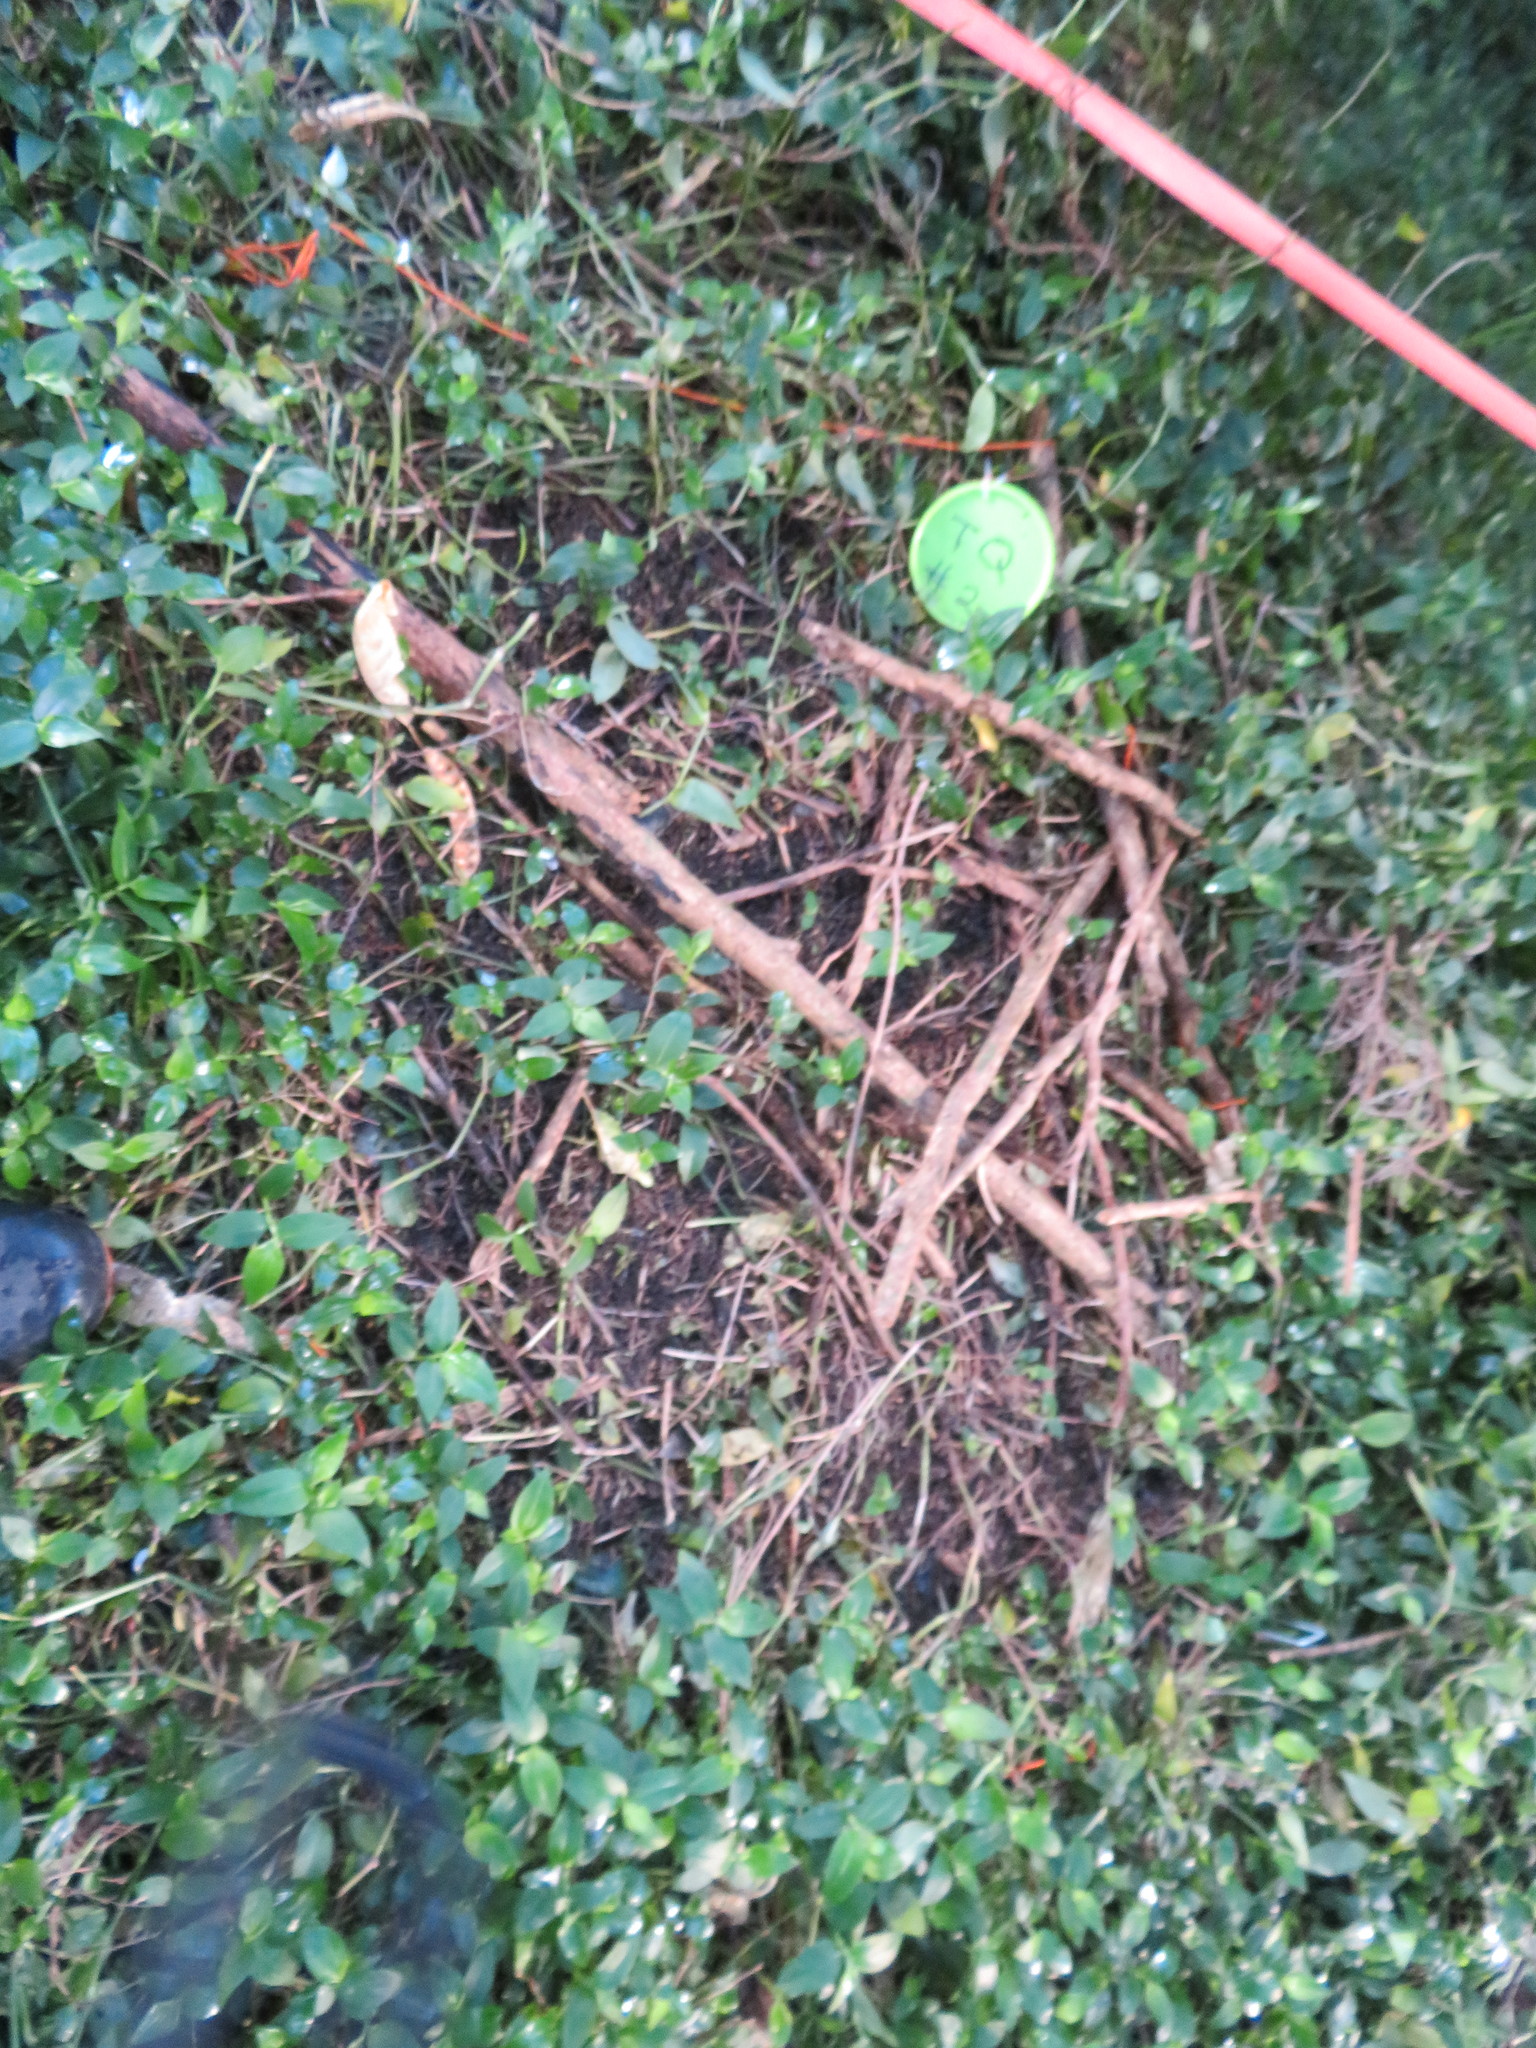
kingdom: Plantae
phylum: Tracheophyta
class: Liliopsida
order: Commelinales
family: Commelinaceae
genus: Tradescantia
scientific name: Tradescantia fluminensis
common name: Wandering-jew
